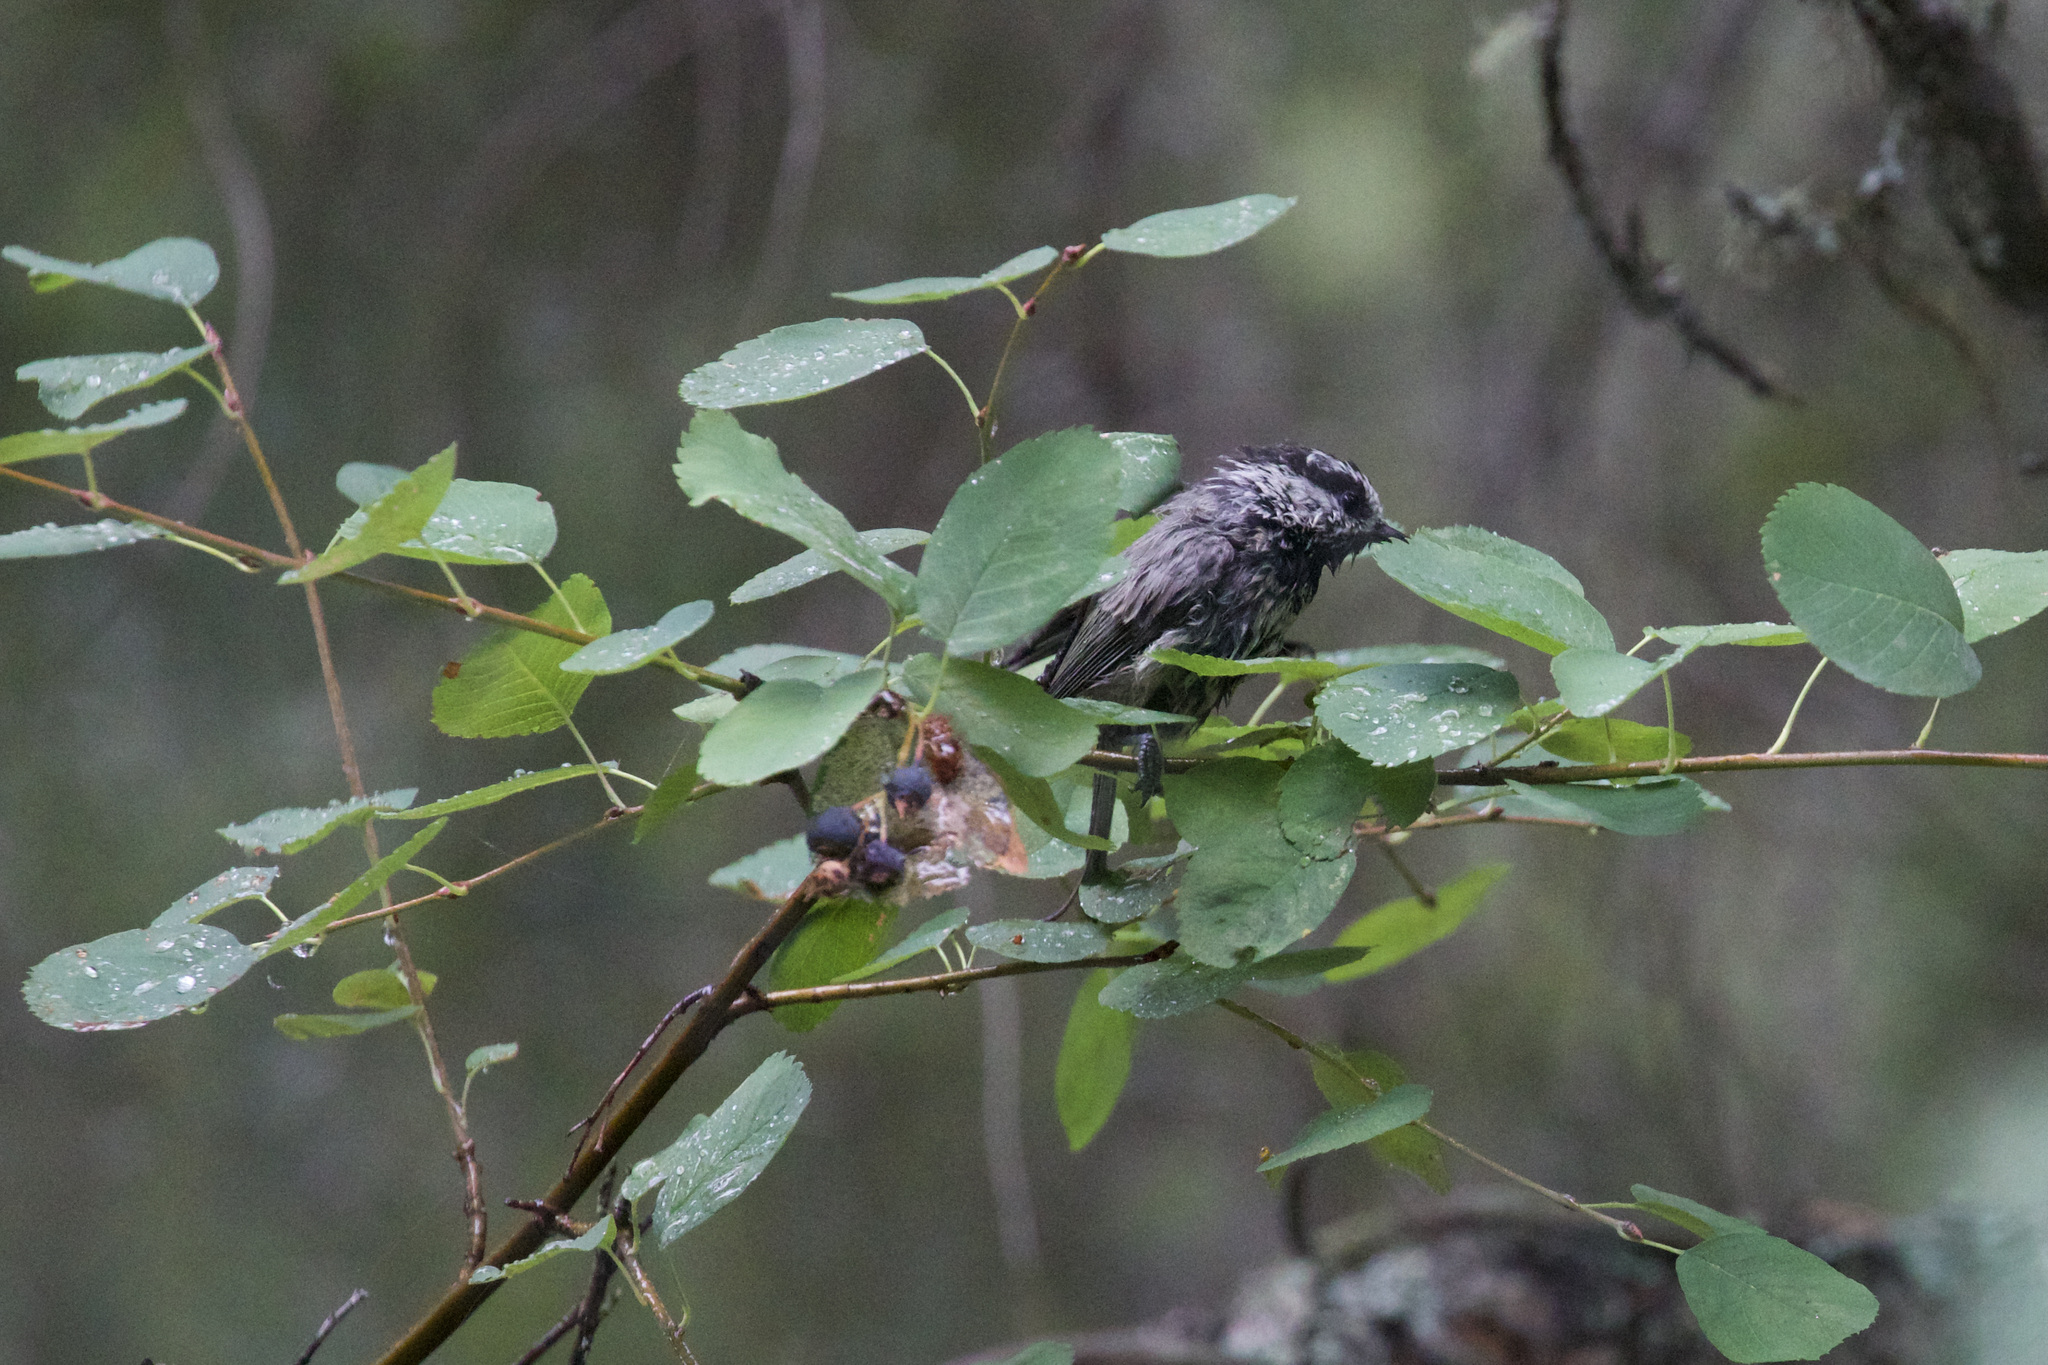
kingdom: Animalia
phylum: Chordata
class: Aves
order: Passeriformes
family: Paridae
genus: Poecile
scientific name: Poecile gambeli
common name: Mountain chickadee
